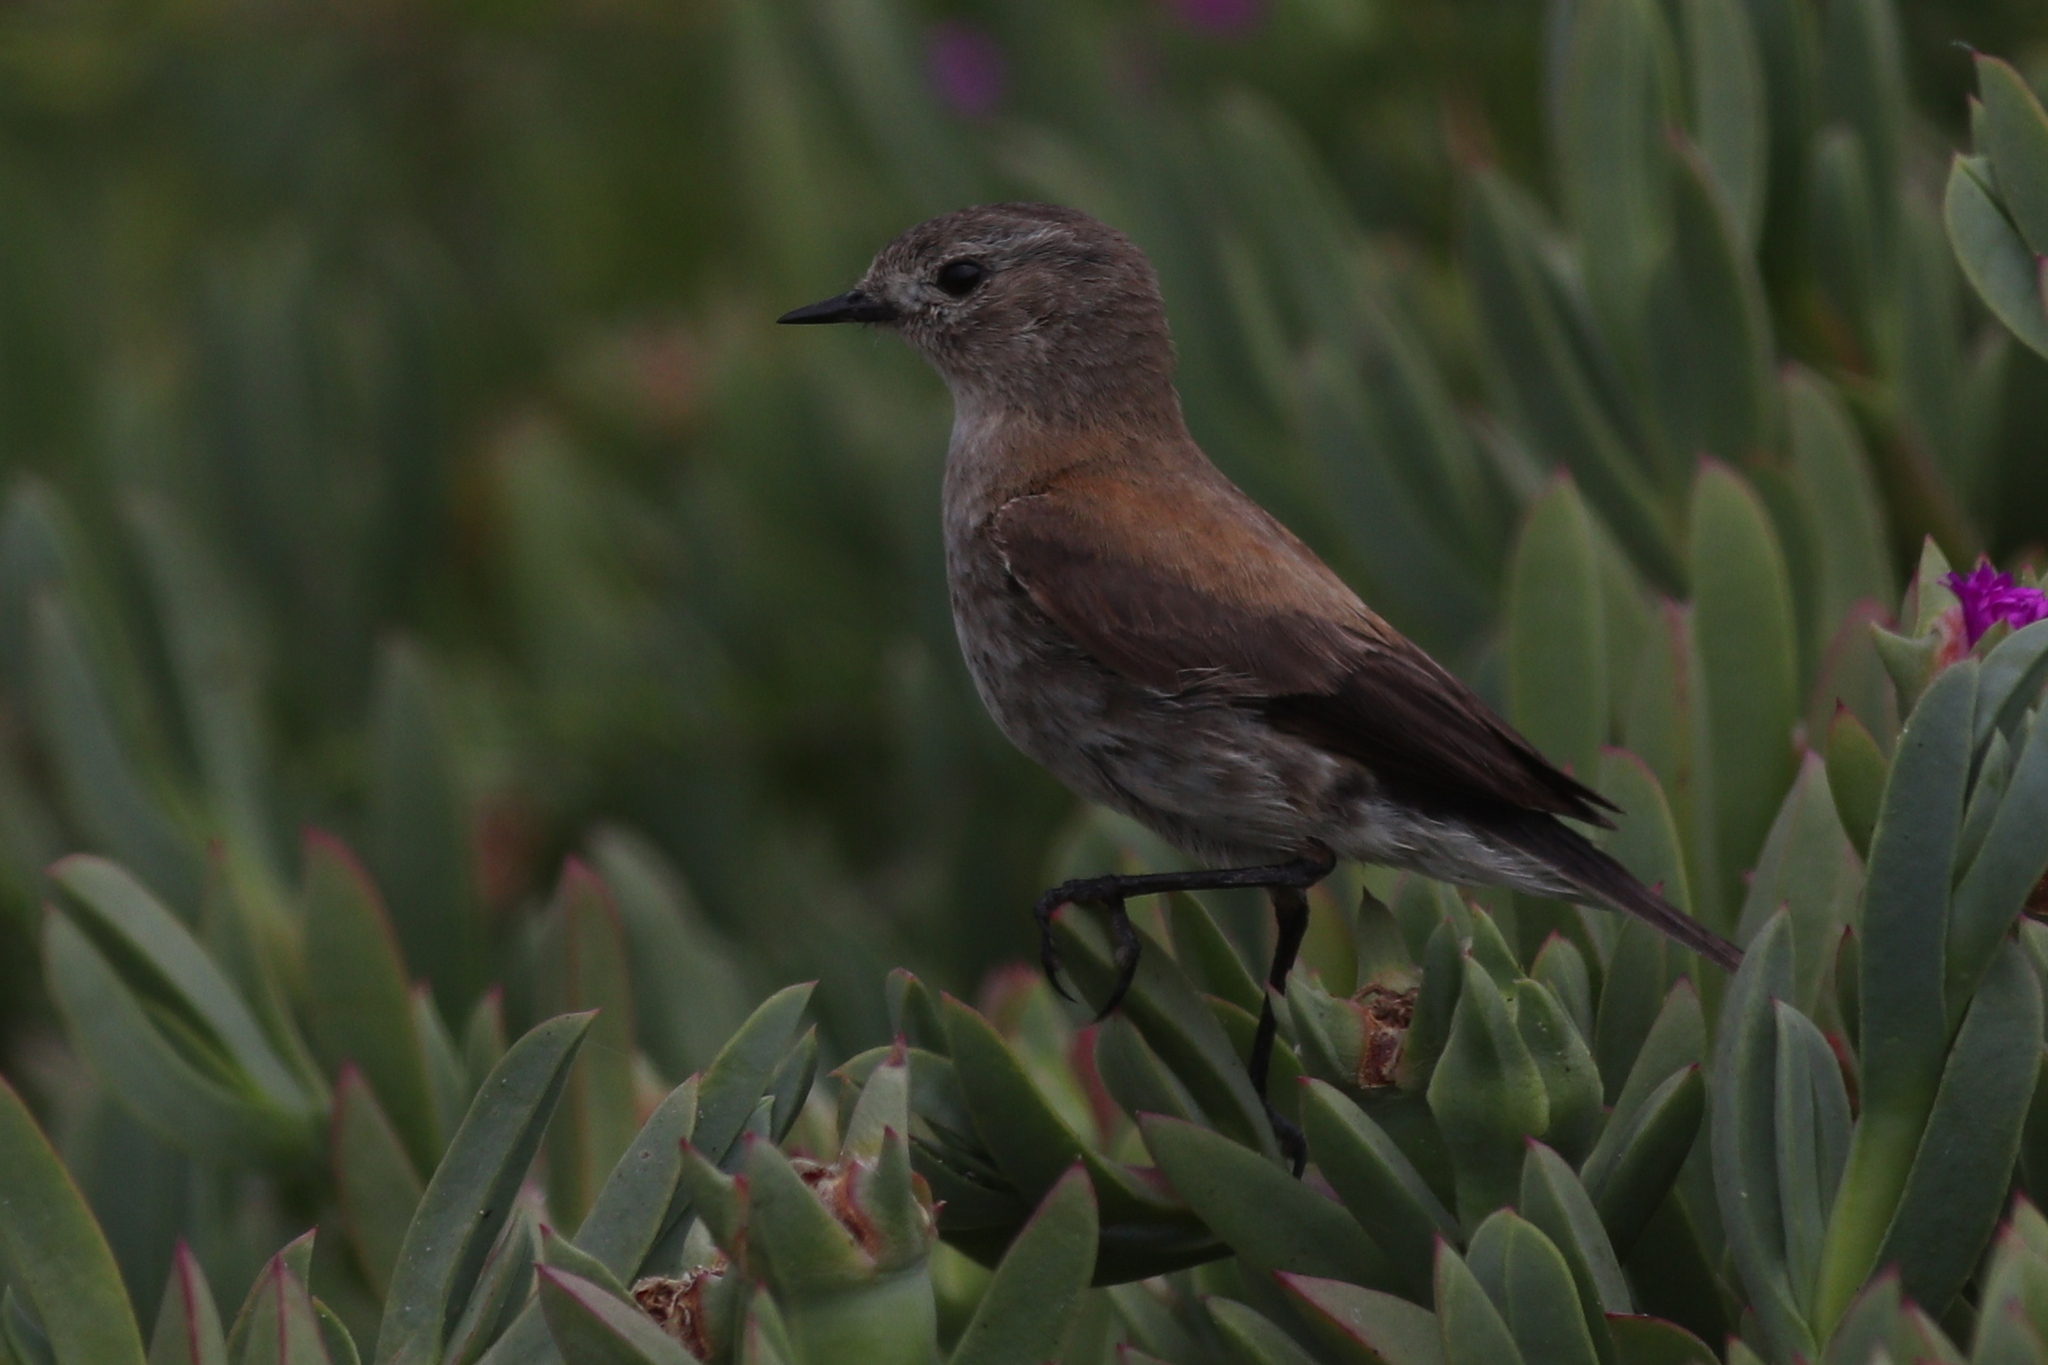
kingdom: Animalia
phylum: Chordata
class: Aves
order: Passeriformes
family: Tyrannidae
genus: Lessonia
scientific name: Lessonia rufa
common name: Austral negrito
